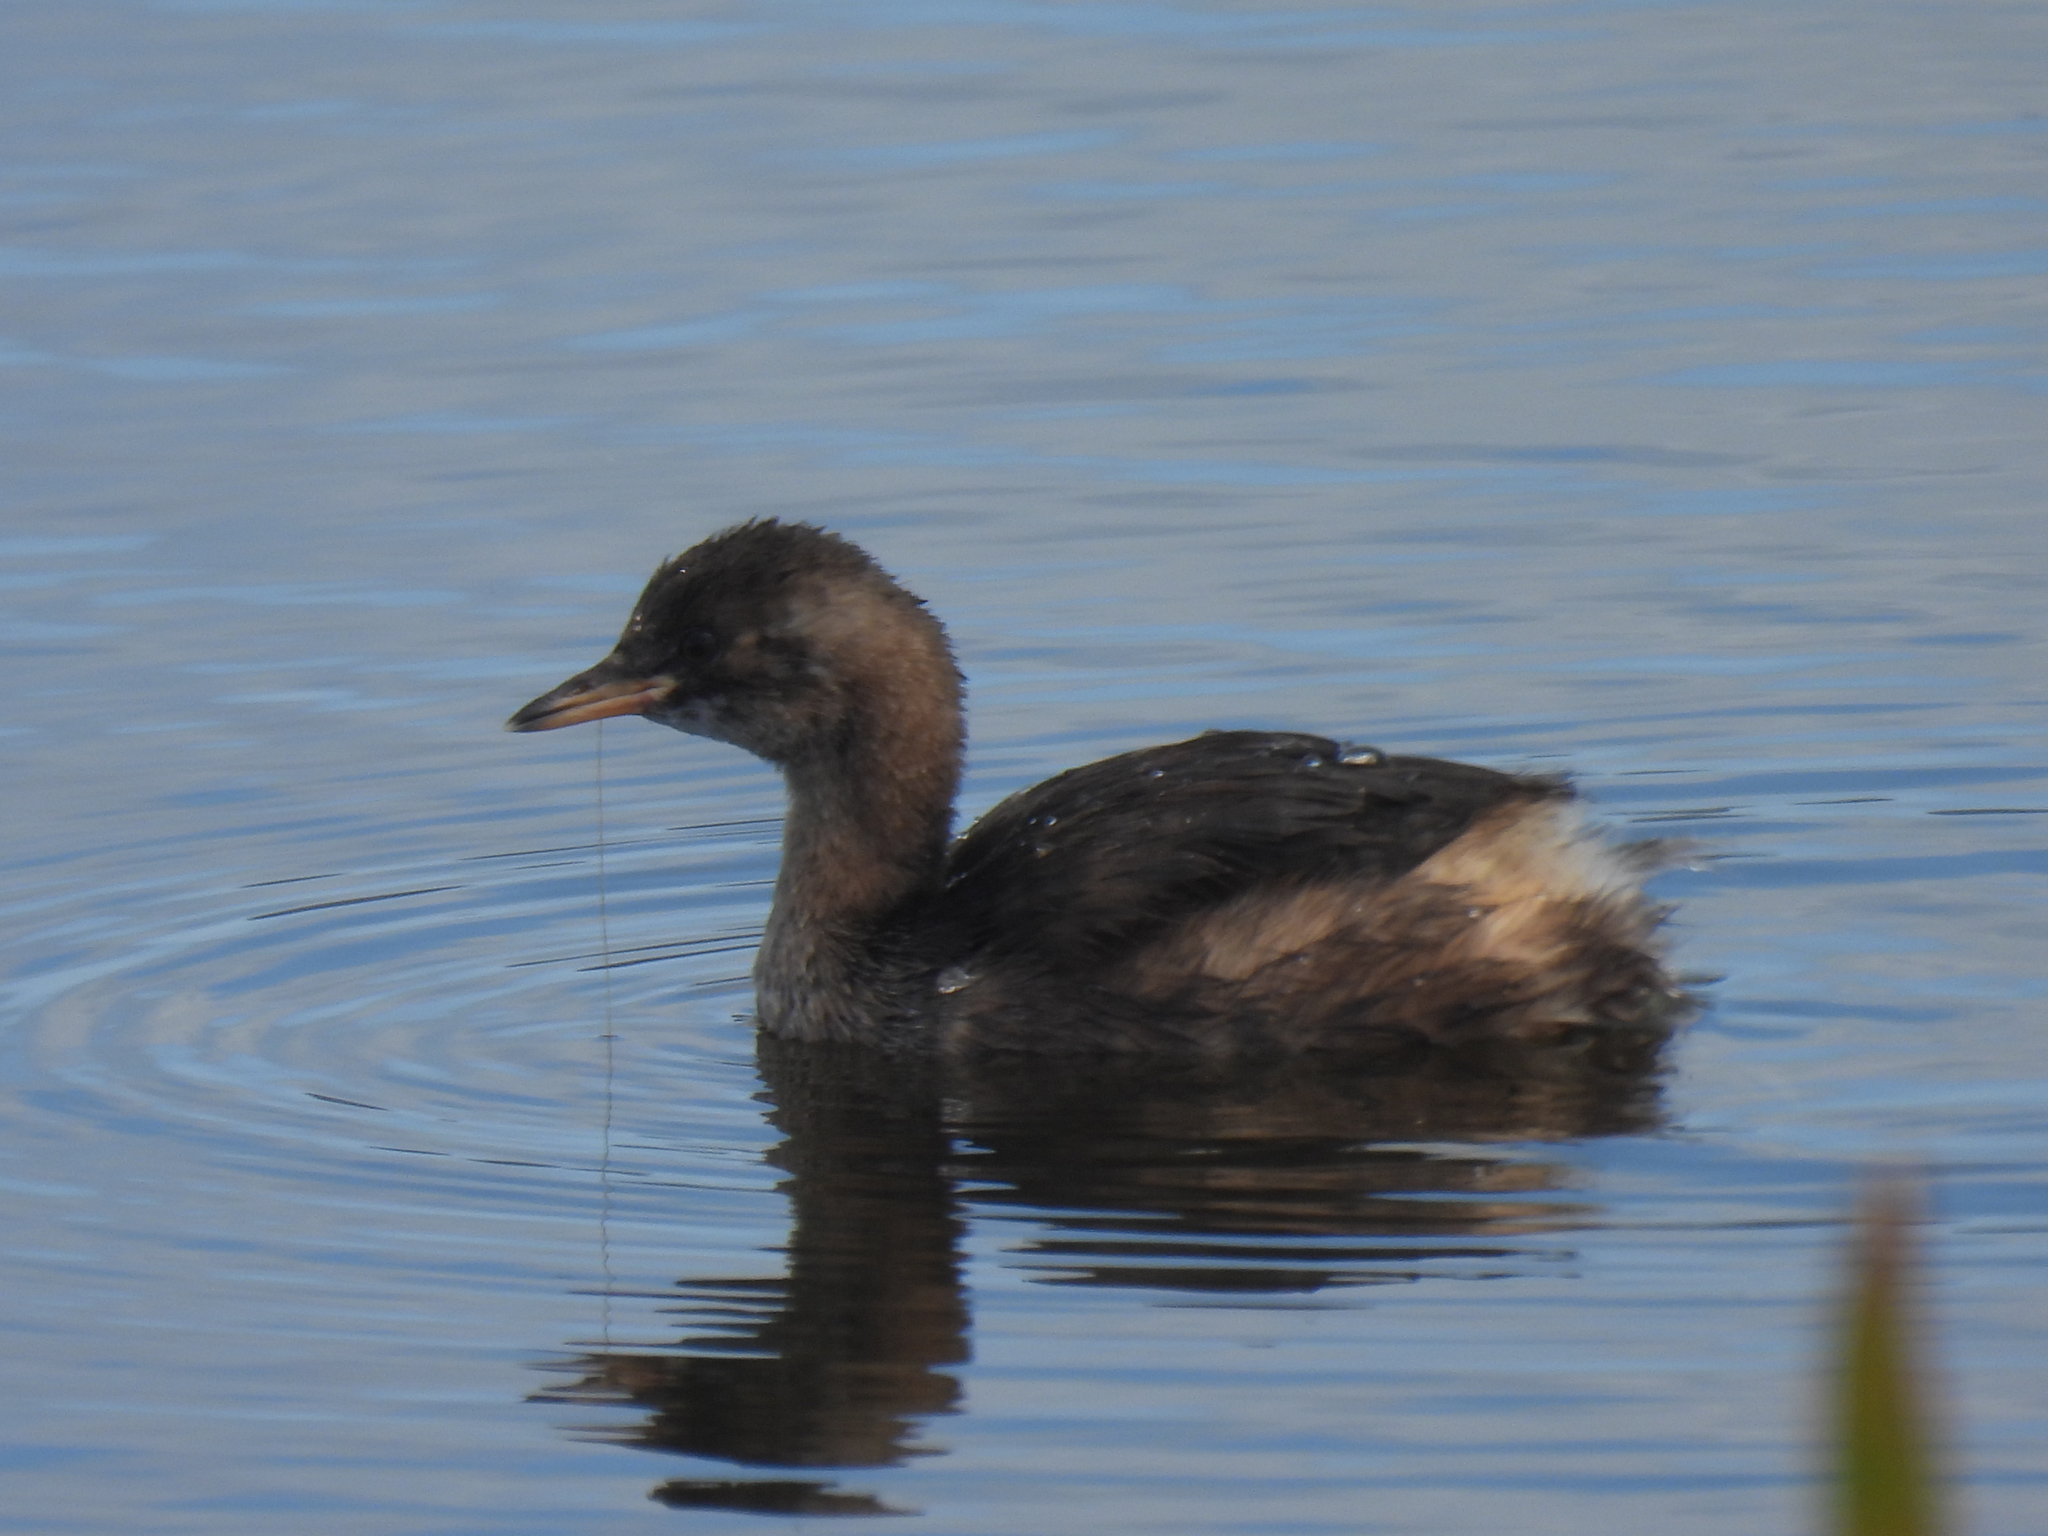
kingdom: Animalia
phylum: Chordata
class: Aves
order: Podicipediformes
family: Podicipedidae
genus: Tachybaptus
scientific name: Tachybaptus ruficollis
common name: Little grebe
